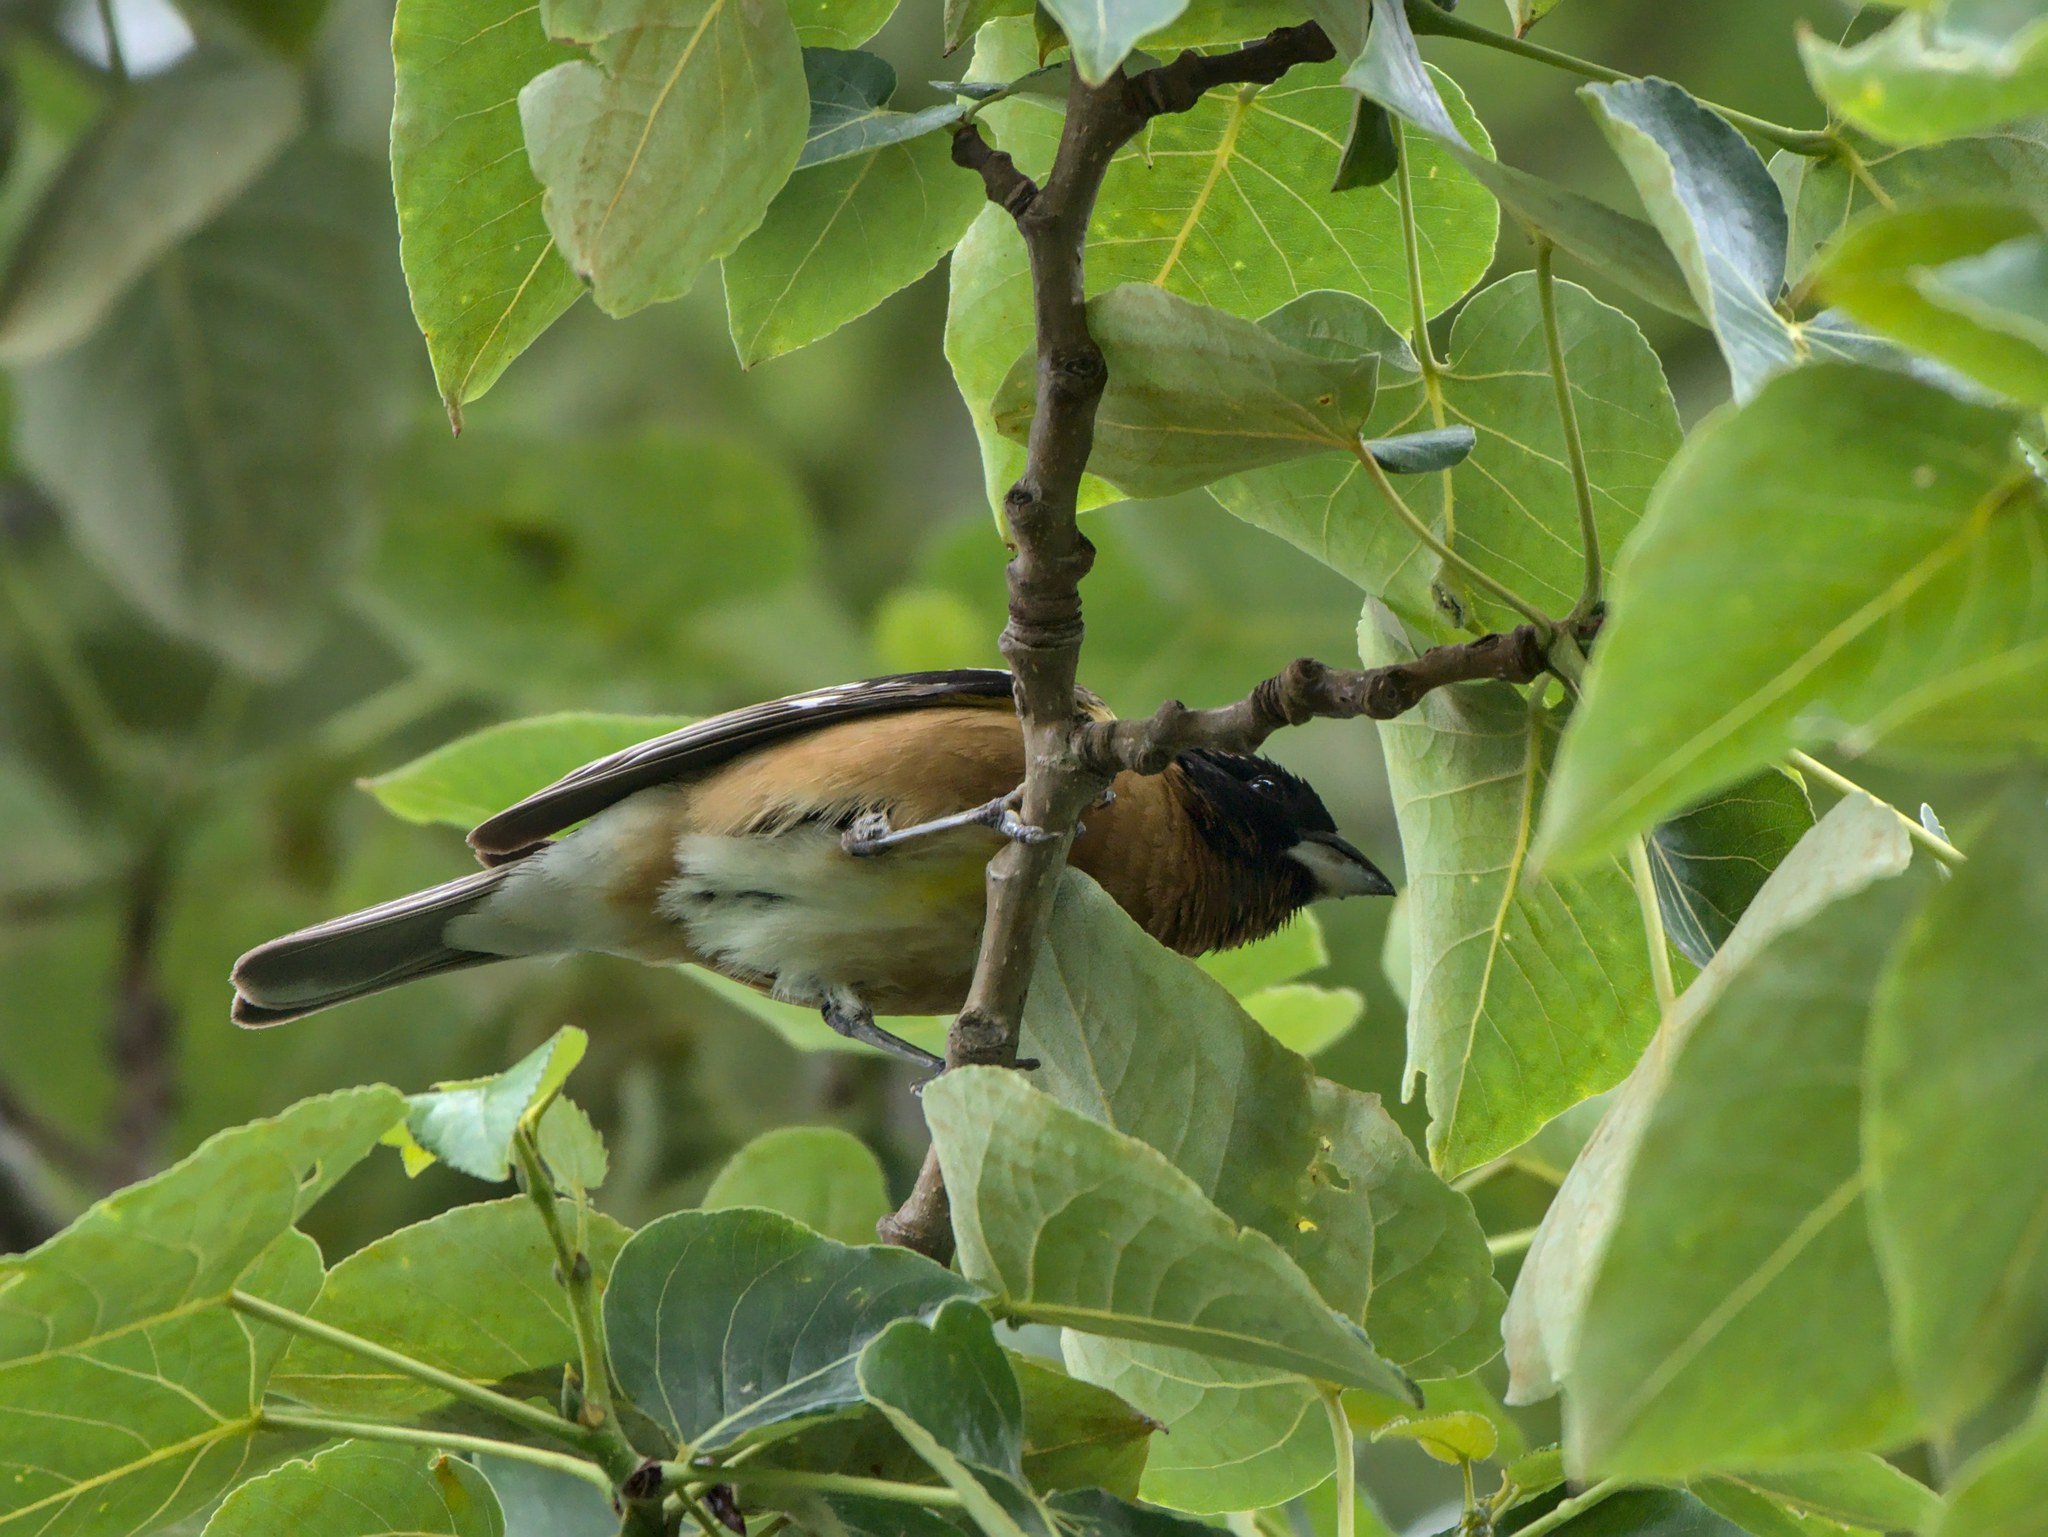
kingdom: Animalia
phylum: Chordata
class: Aves
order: Passeriformes
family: Cardinalidae
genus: Pheucticus
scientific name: Pheucticus melanocephalus
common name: Black-headed grosbeak
